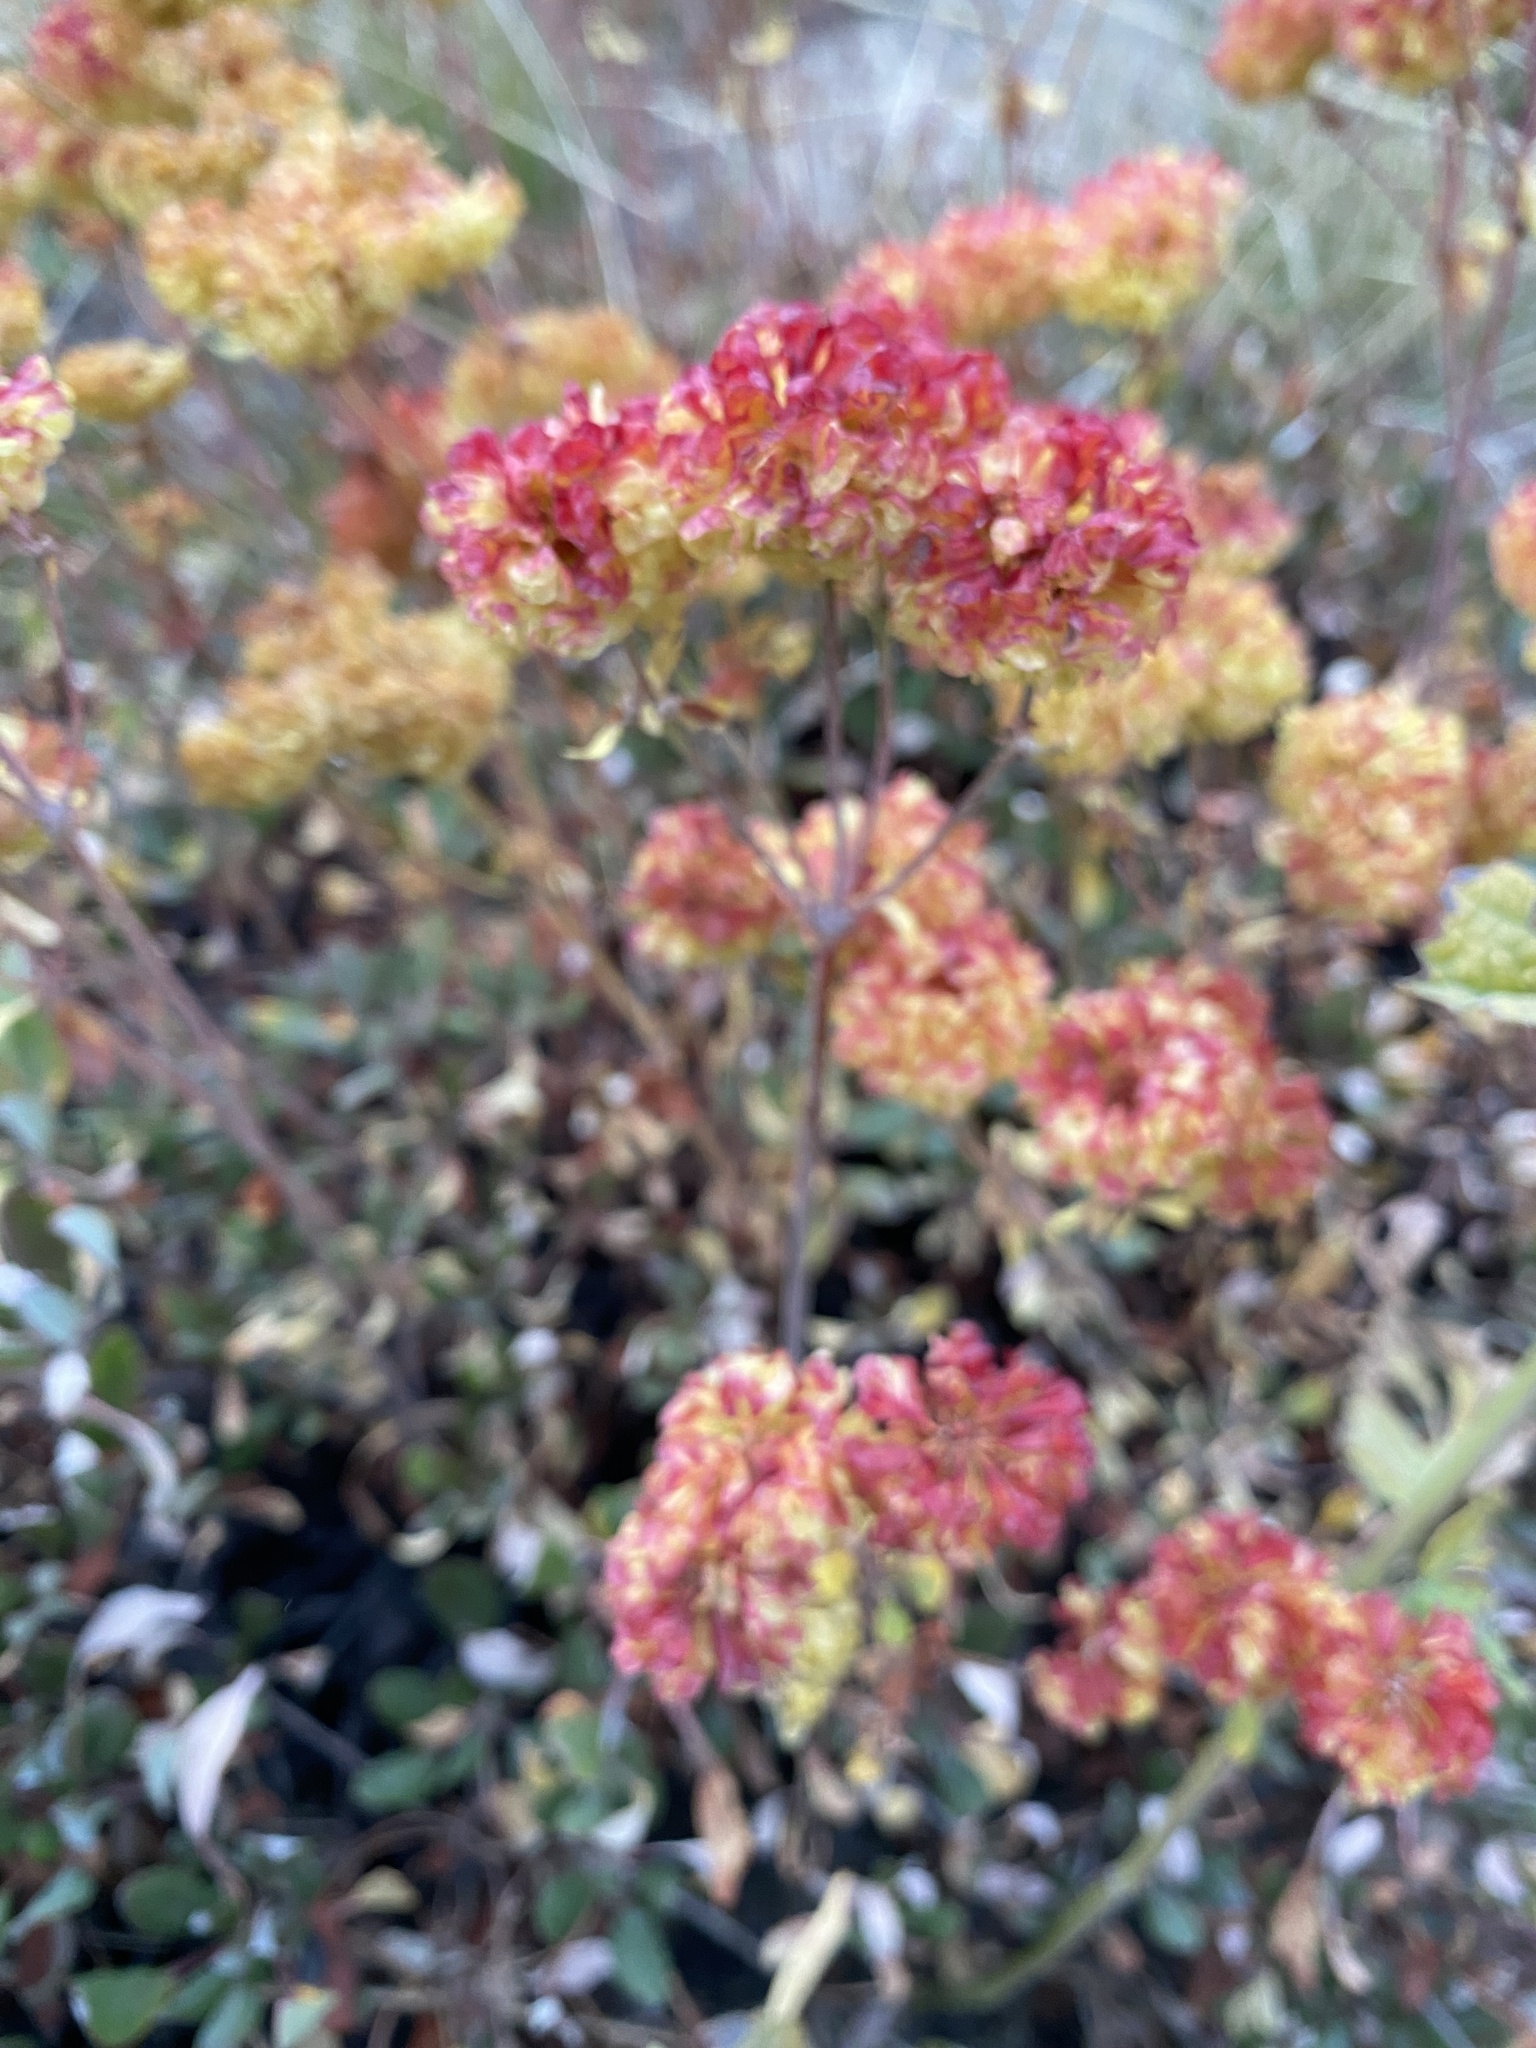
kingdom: Plantae
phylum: Tracheophyta
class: Magnoliopsida
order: Caryophyllales
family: Polygonaceae
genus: Eriogonum
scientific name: Eriogonum umbellatum
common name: Sulfur-buckwheat
